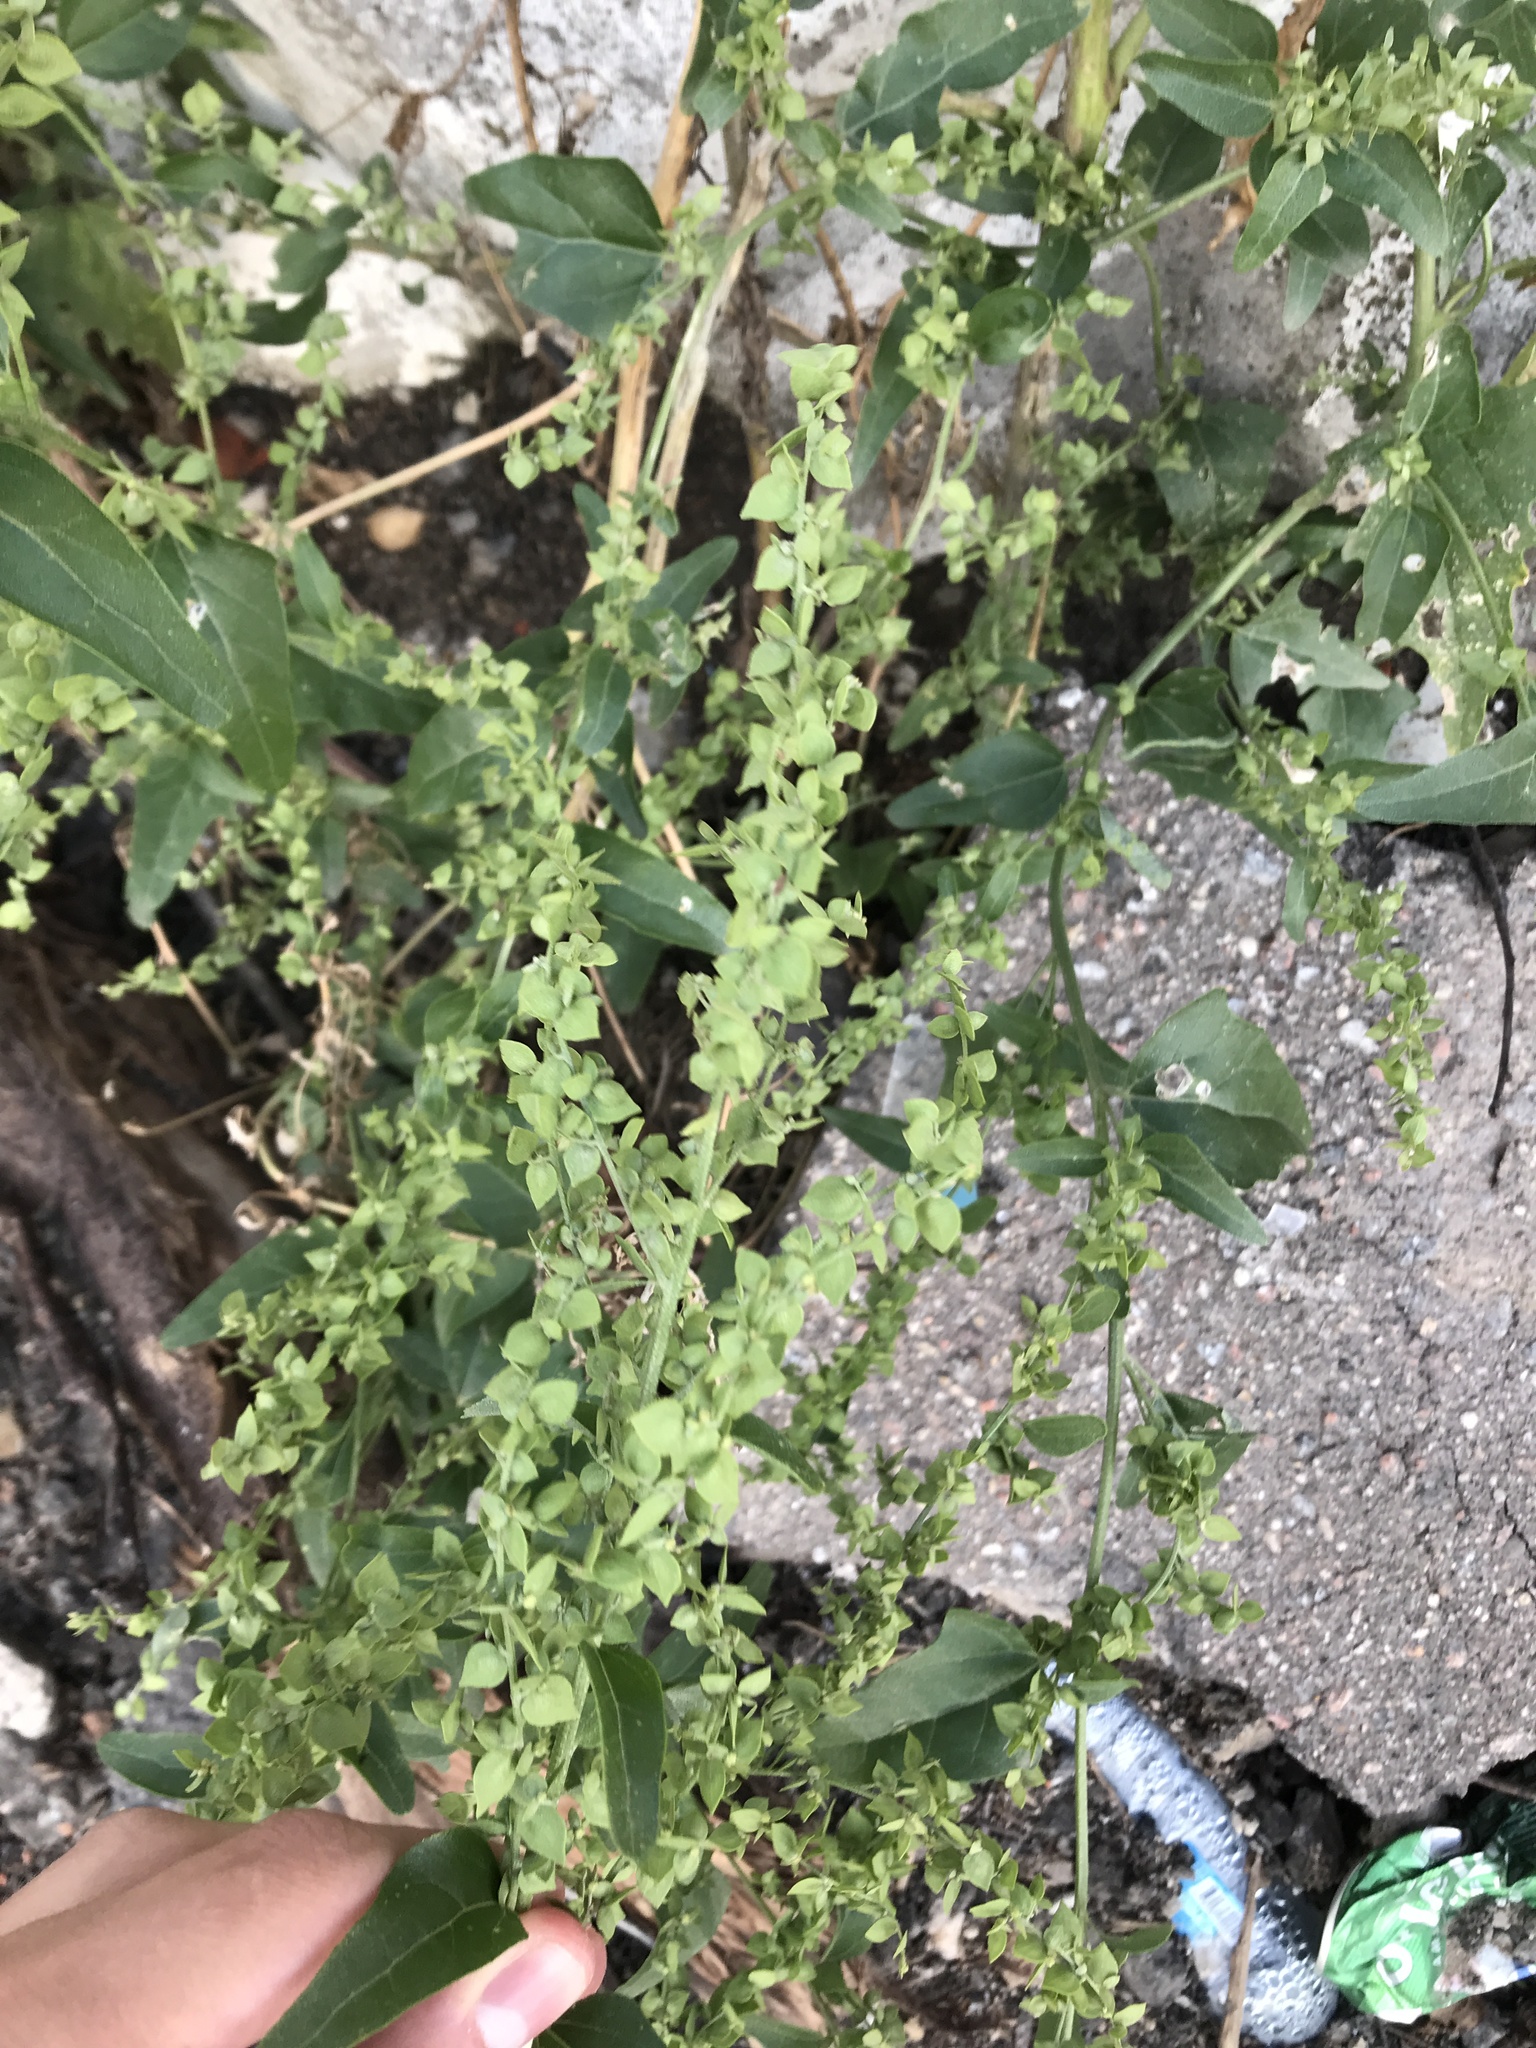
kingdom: Plantae
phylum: Tracheophyta
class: Magnoliopsida
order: Caryophyllales
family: Amaranthaceae
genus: Atriplex
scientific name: Atriplex sagittata
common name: Purple orache
